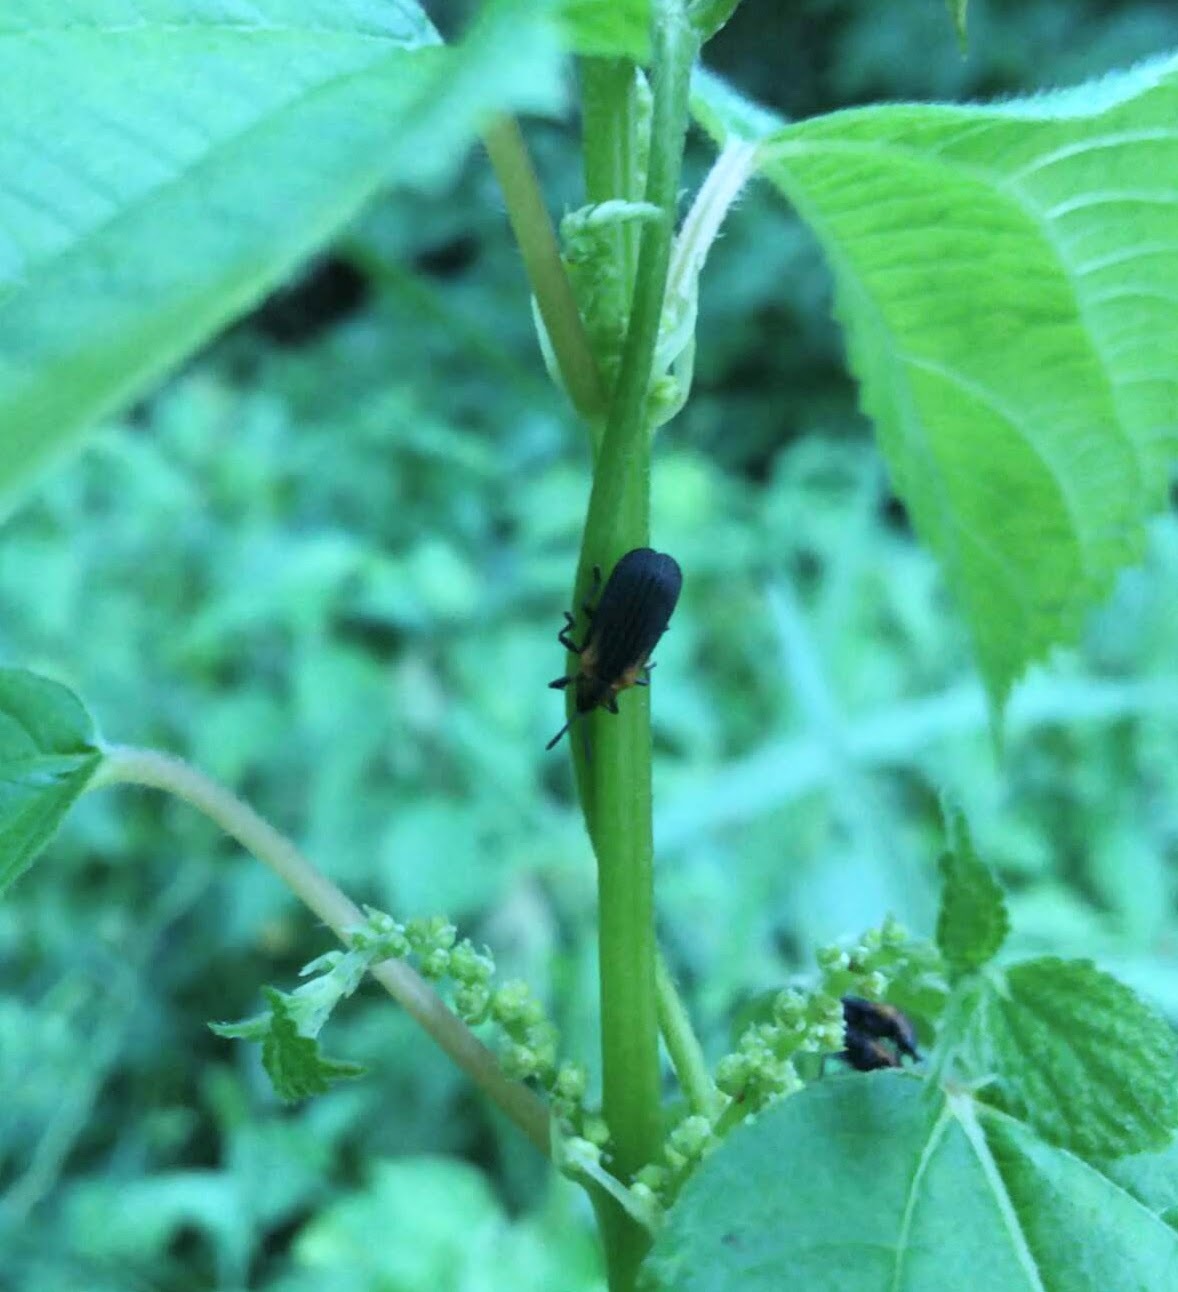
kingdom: Animalia
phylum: Arthropoda
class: Insecta
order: Coleoptera
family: Chrysomelidae
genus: Odontota
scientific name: Odontota scapularis
